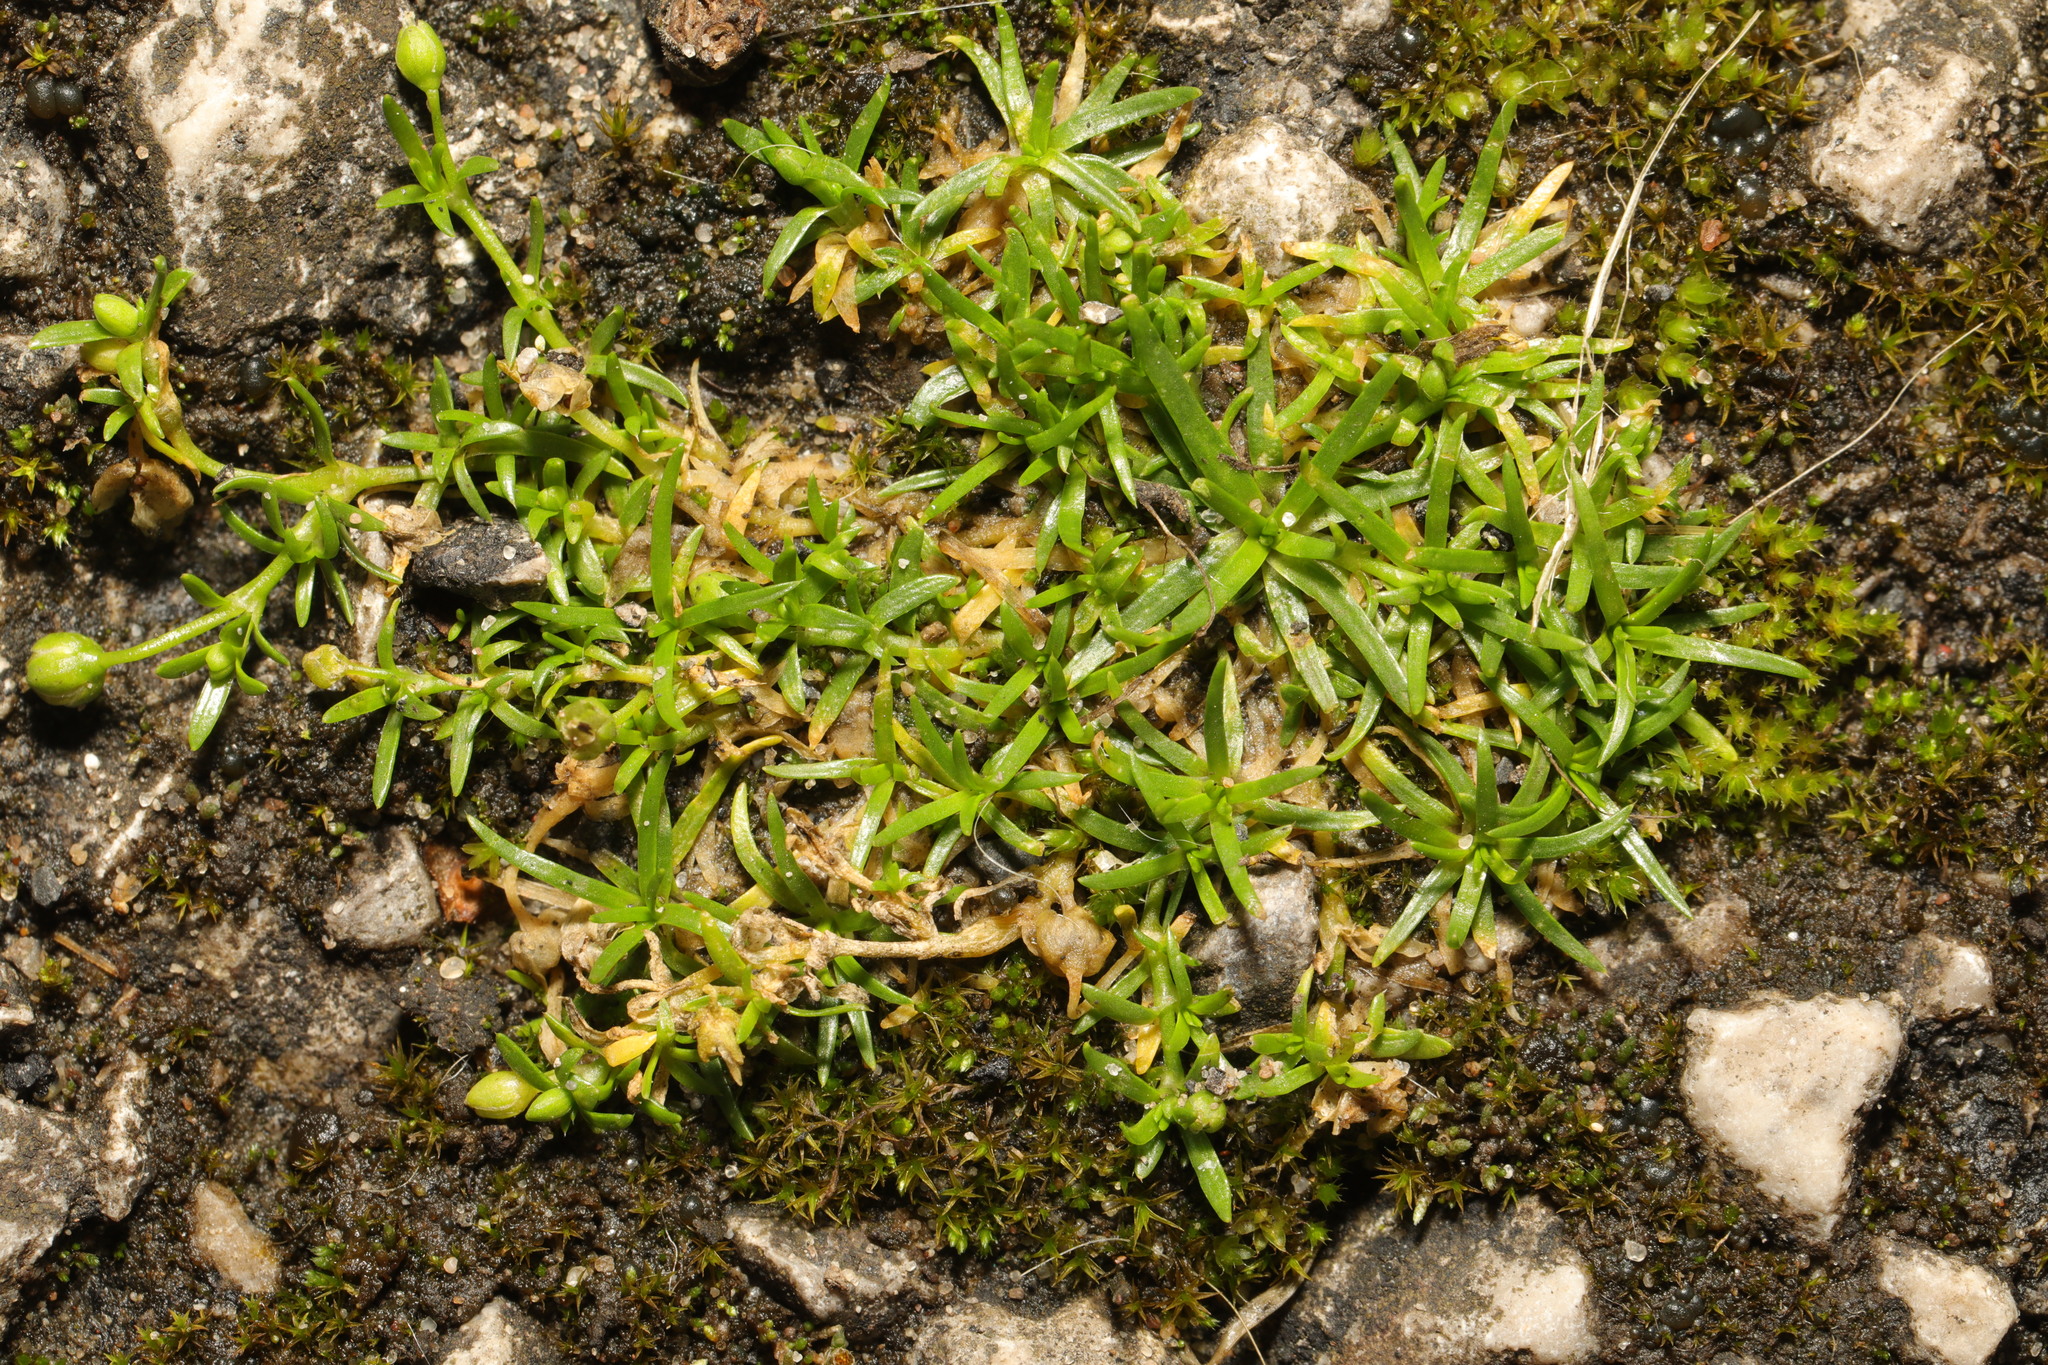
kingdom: Plantae
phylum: Tracheophyta
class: Magnoliopsida
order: Caryophyllales
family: Caryophyllaceae
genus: Sagina
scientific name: Sagina procumbens
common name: Procumbent pearlwort
